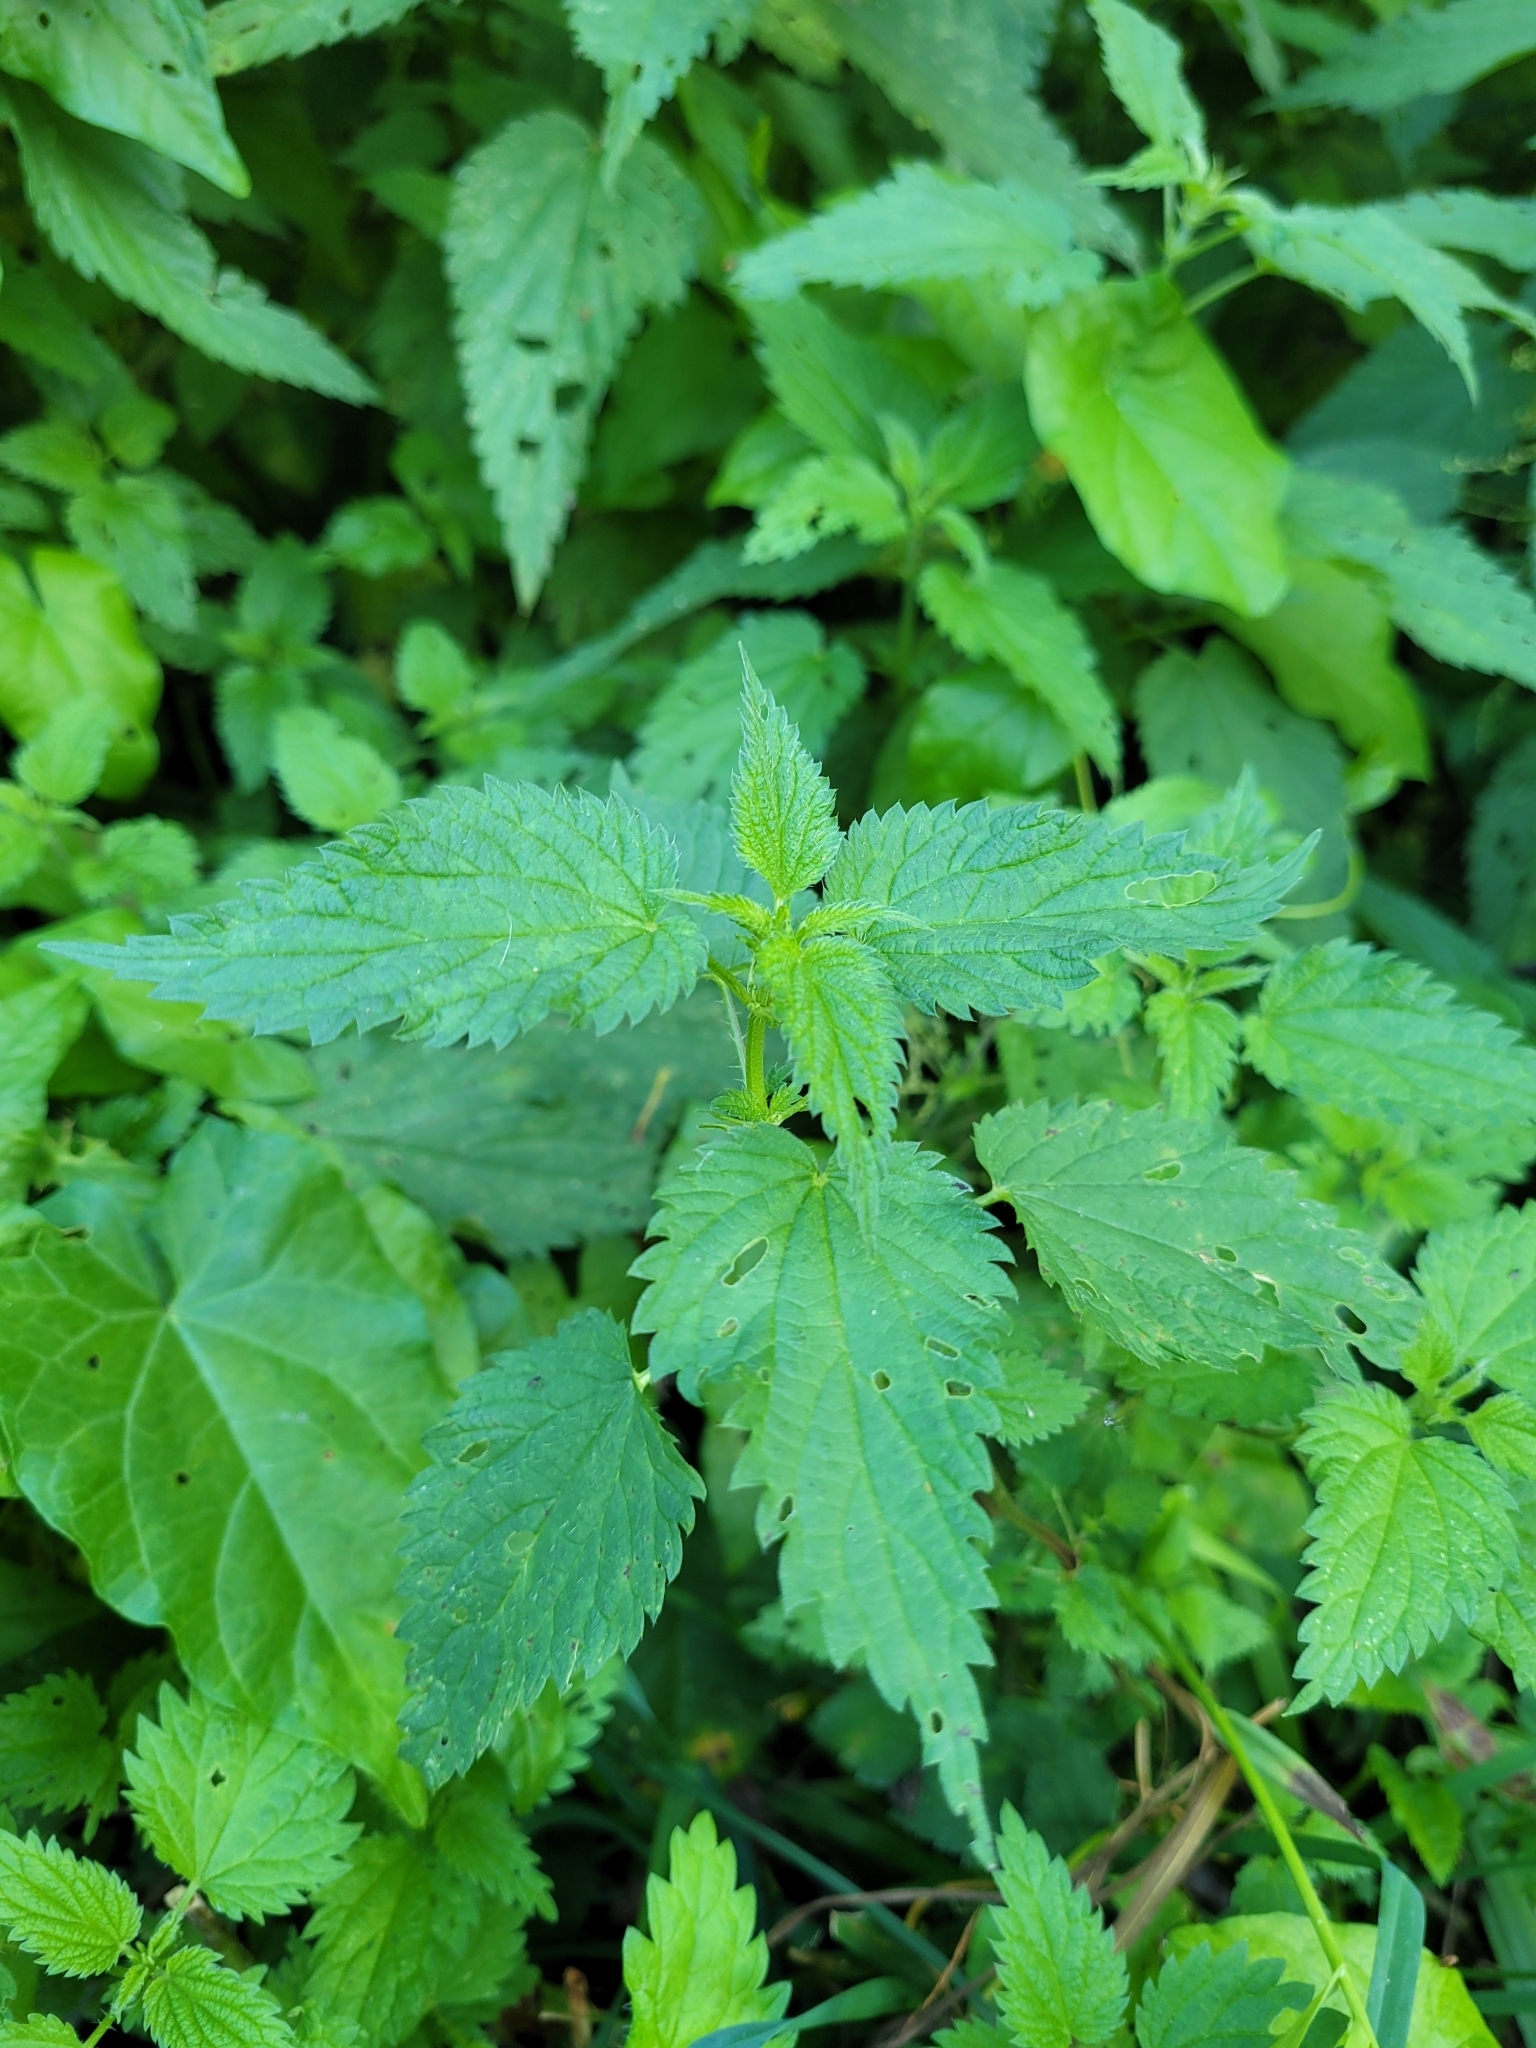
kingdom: Plantae
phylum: Tracheophyta
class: Magnoliopsida
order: Rosales
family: Urticaceae
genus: Urtica
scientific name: Urtica dioica
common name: Common nettle
